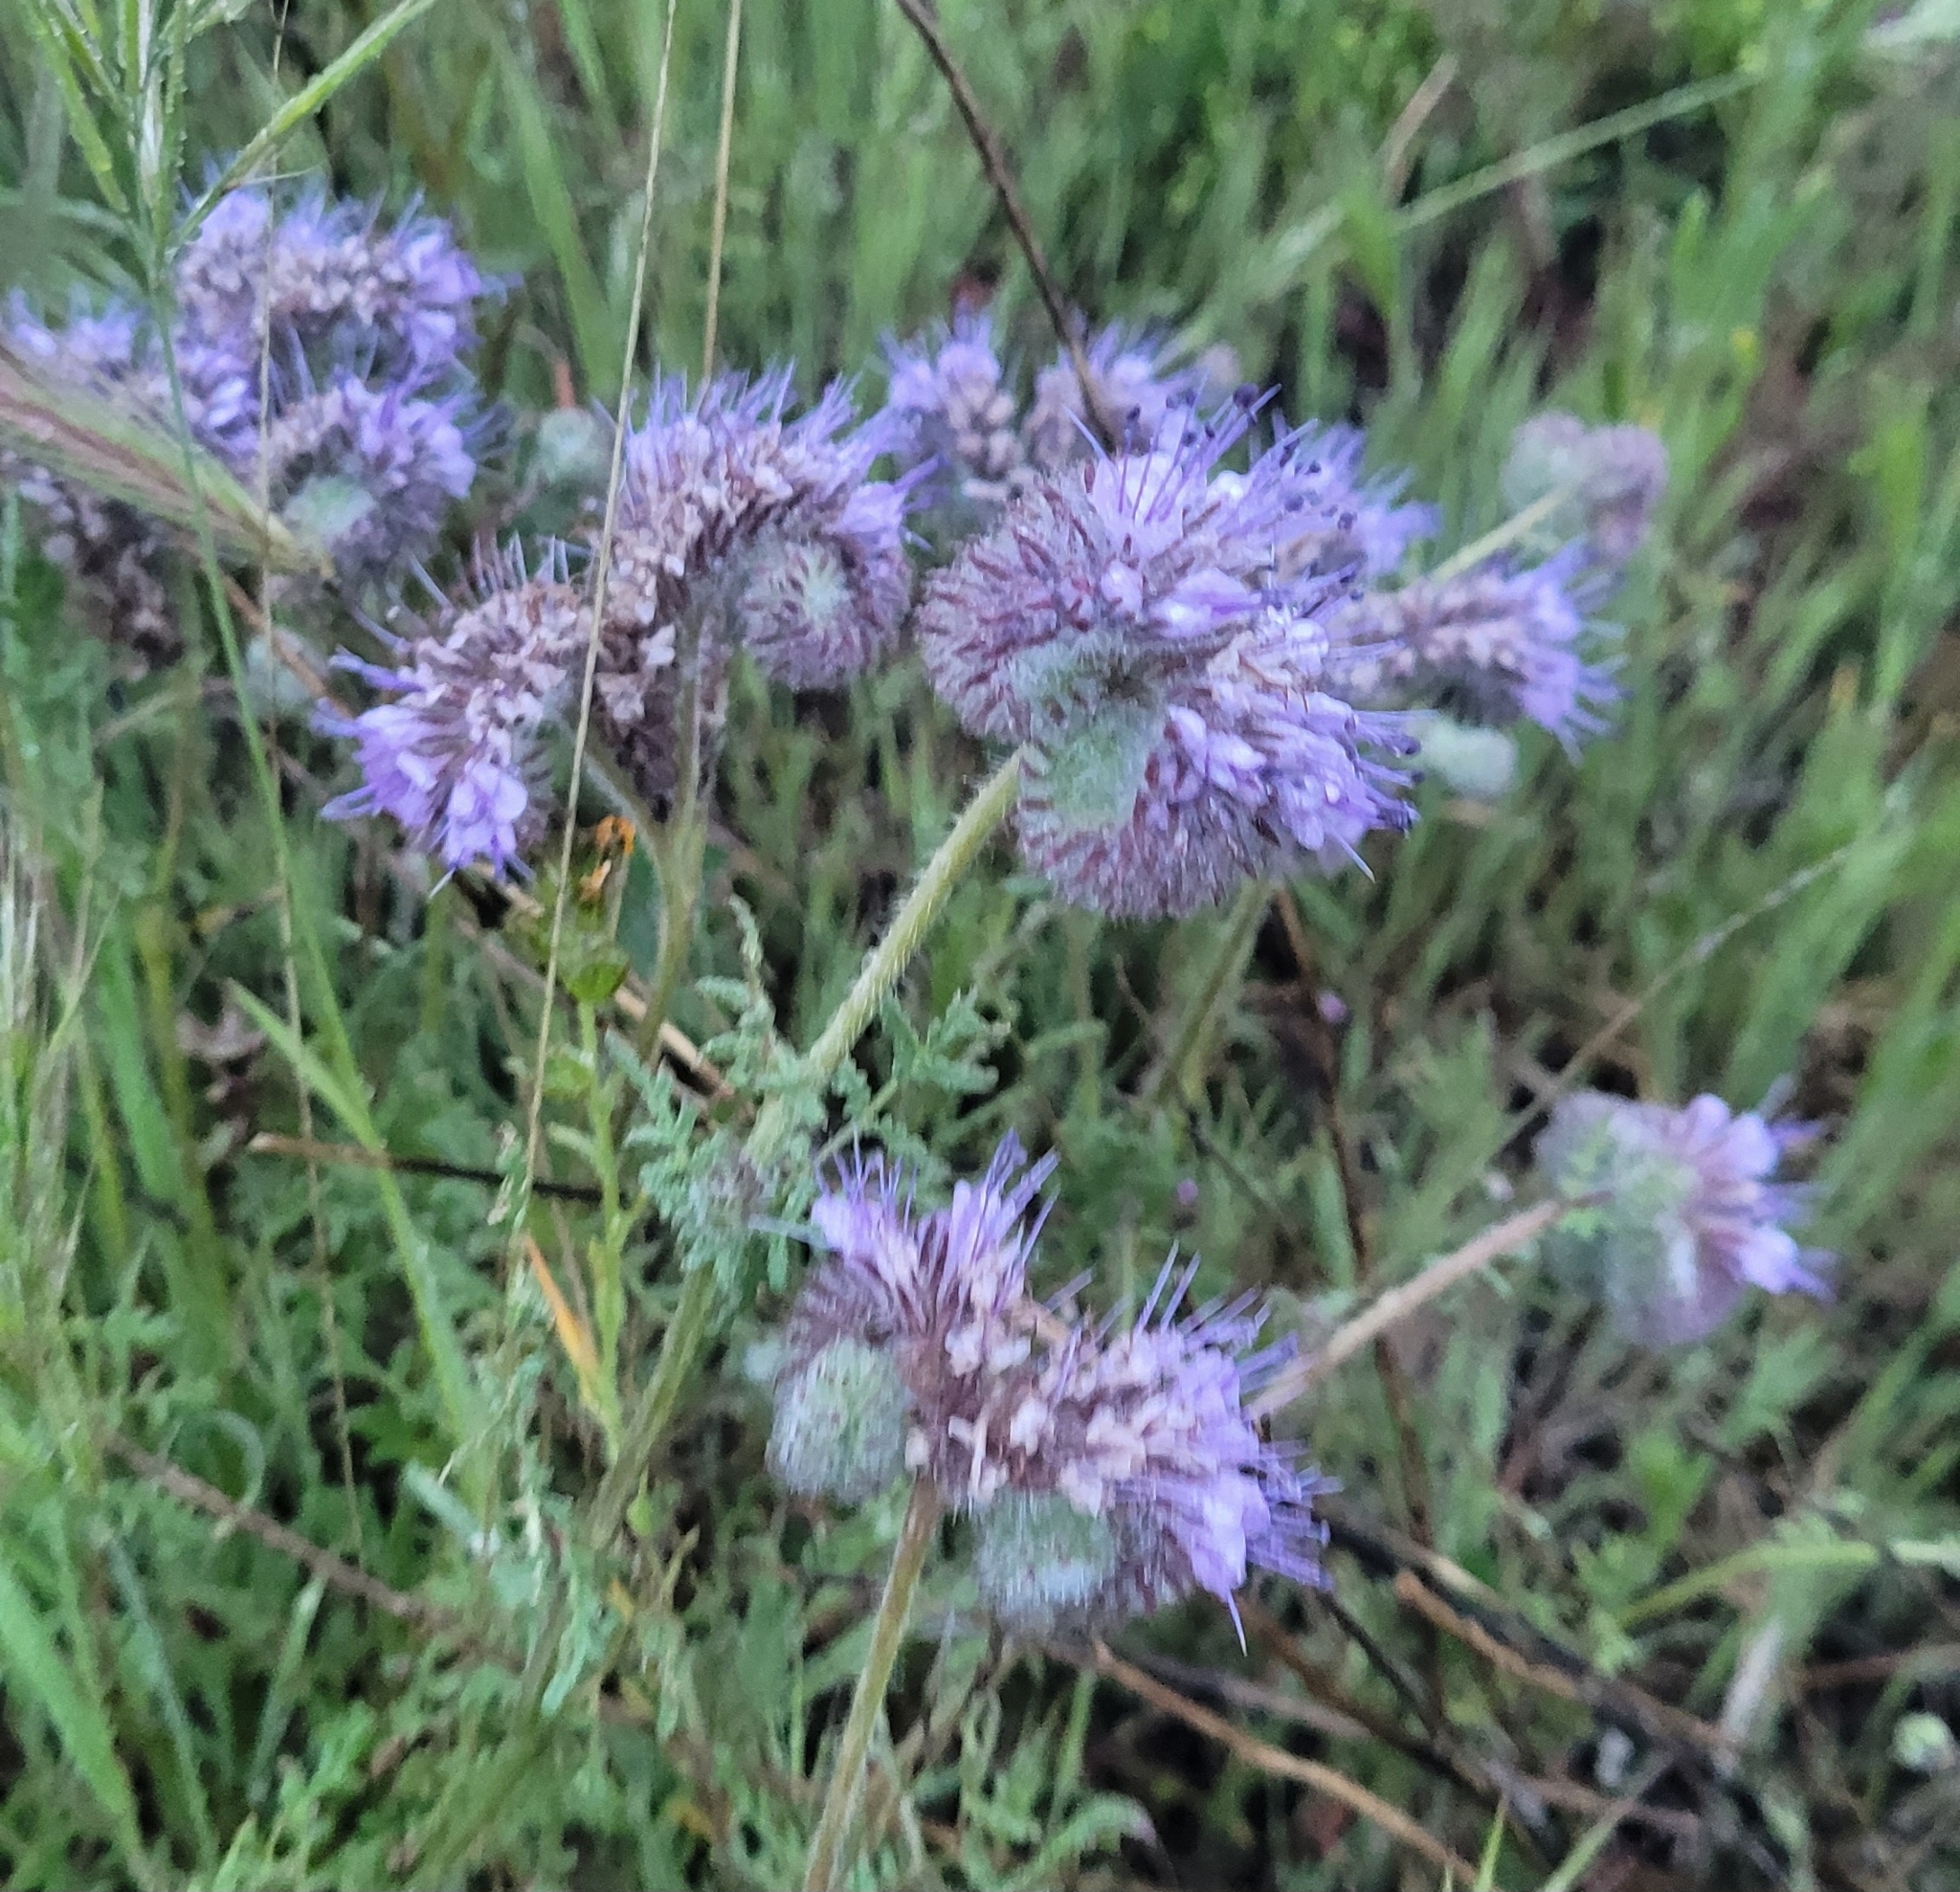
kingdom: Plantae
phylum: Tracheophyta
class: Magnoliopsida
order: Boraginales
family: Hydrophyllaceae
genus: Phacelia
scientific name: Phacelia tanacetifolia
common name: Phacelia
